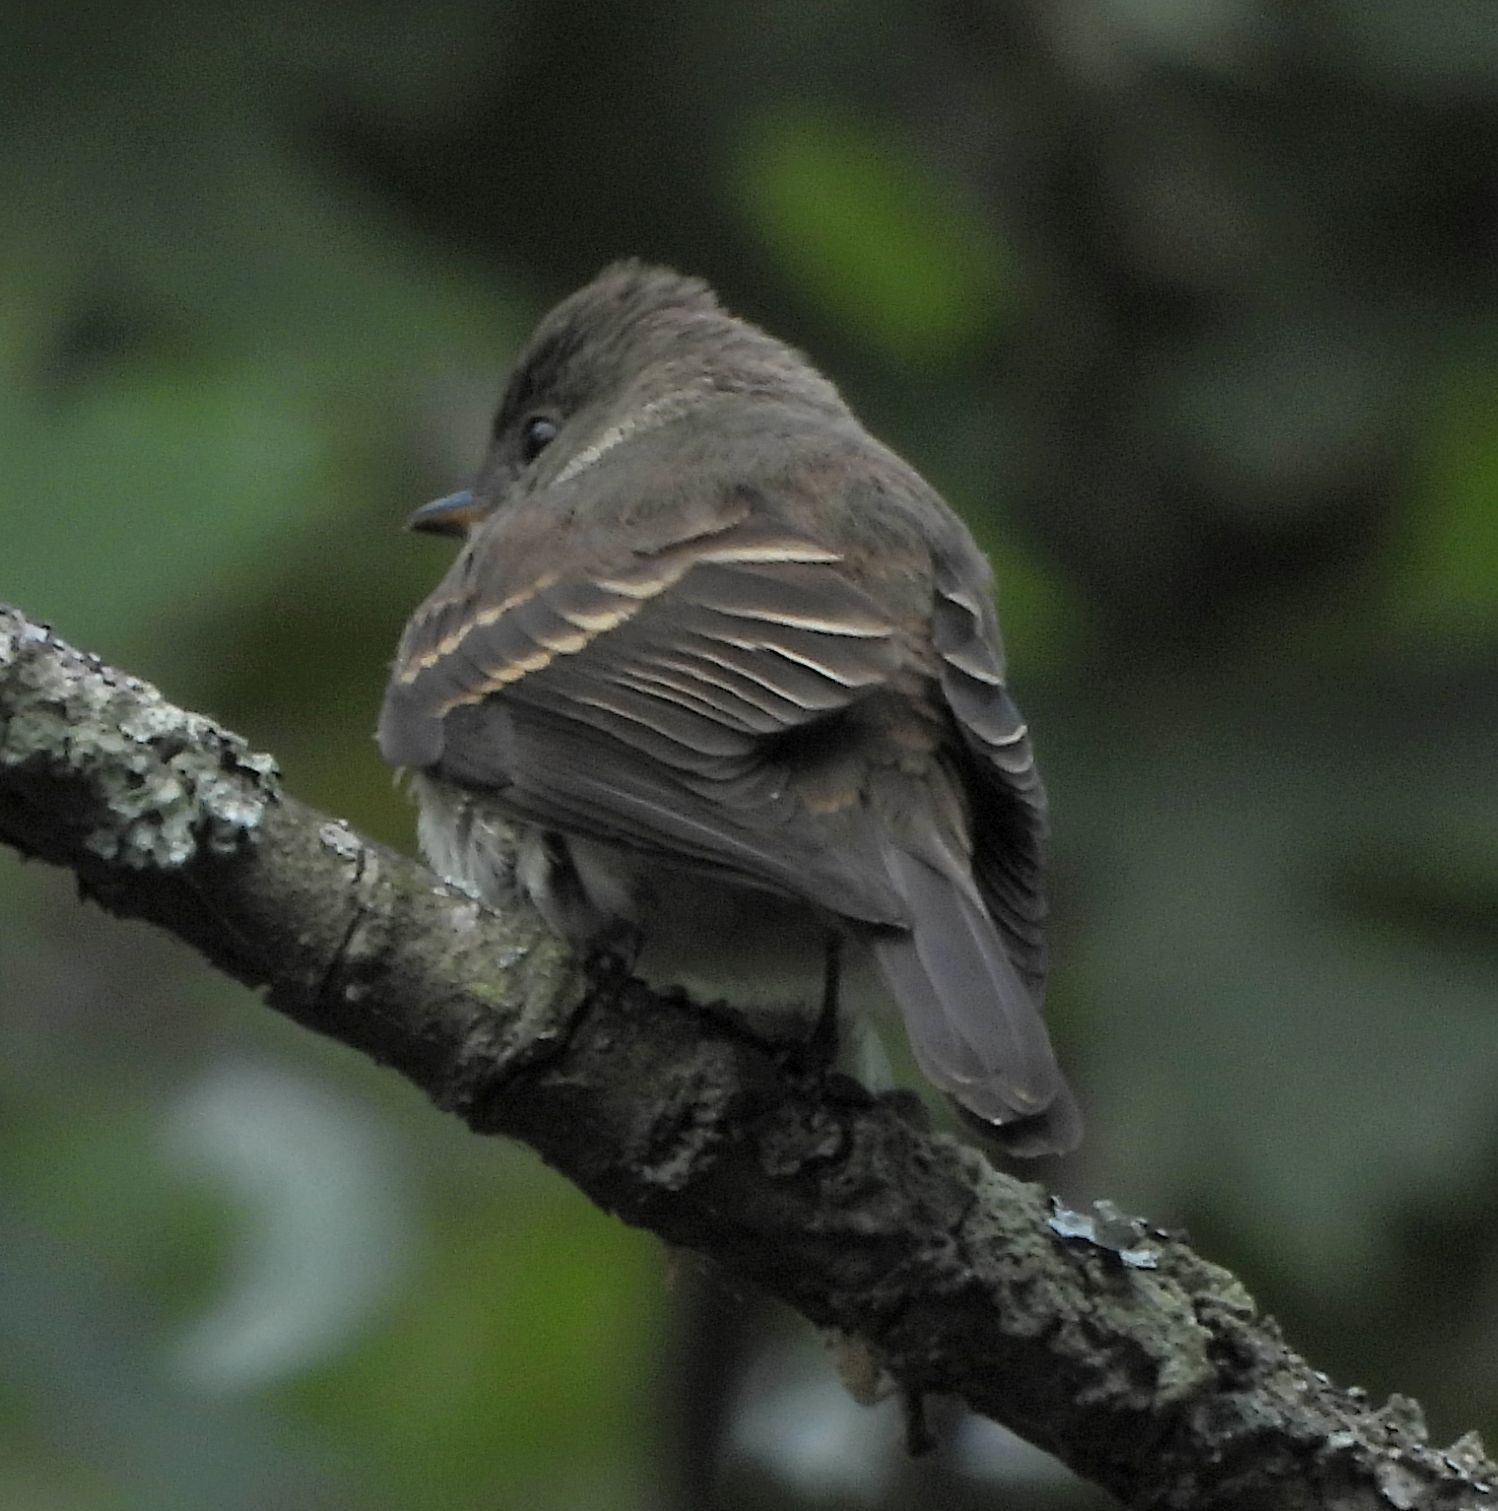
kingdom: Animalia
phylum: Chordata
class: Aves
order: Passeriformes
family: Tyrannidae
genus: Contopus
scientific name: Contopus virens
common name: Eastern wood-pewee
